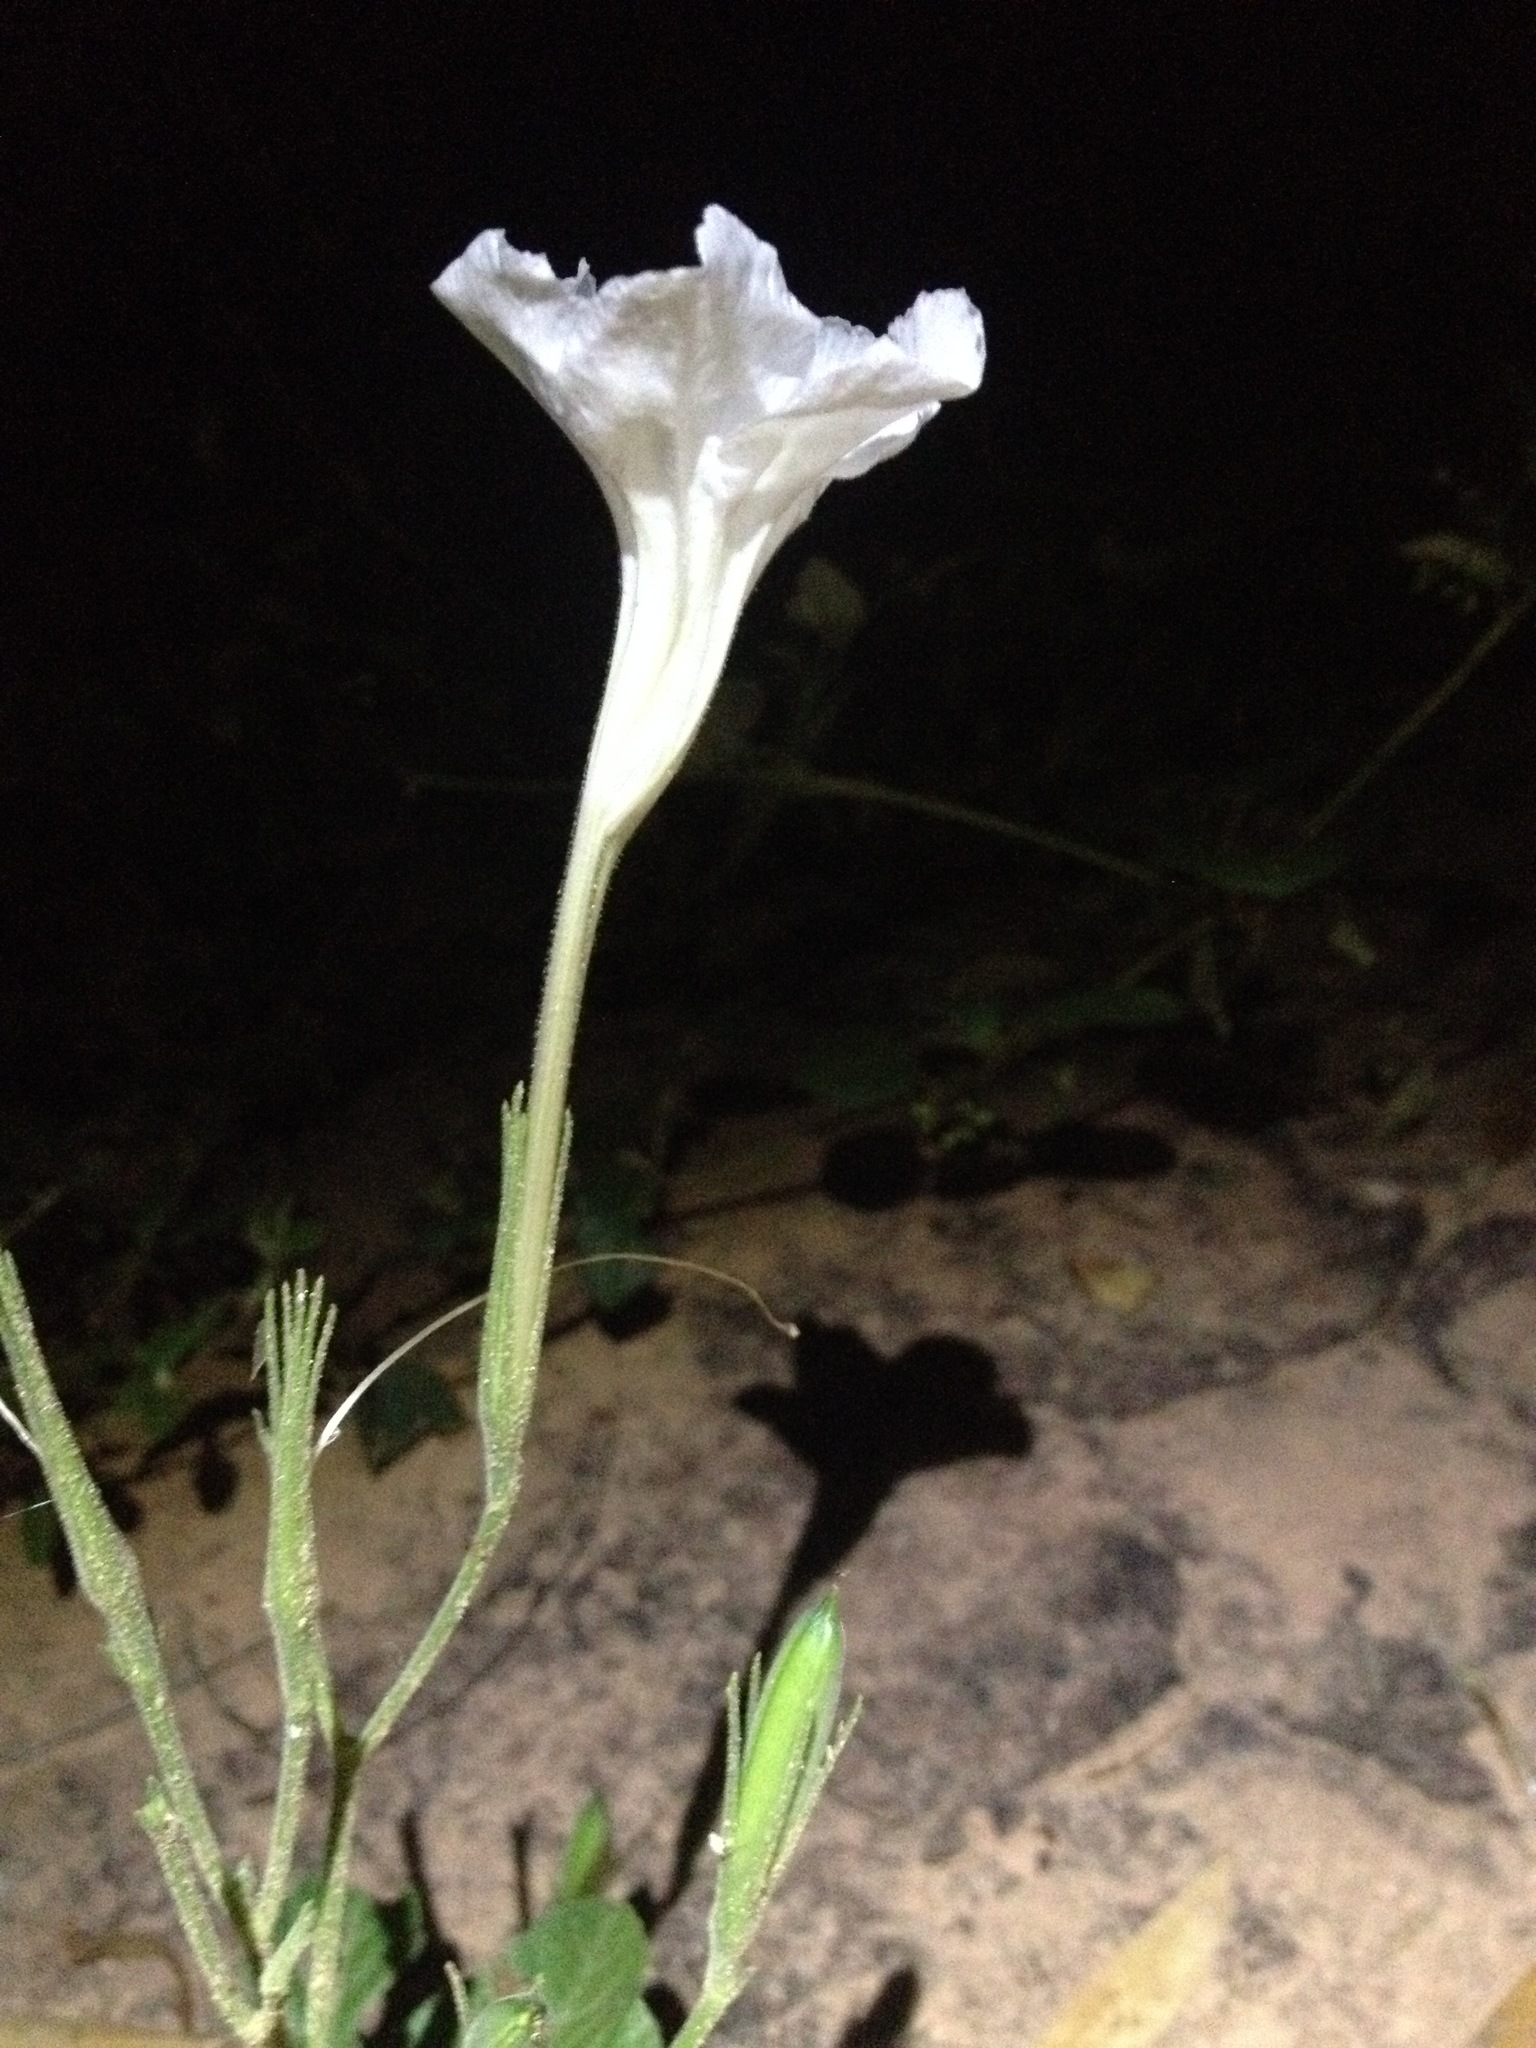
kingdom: Plantae
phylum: Tracheophyta
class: Magnoliopsida
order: Lamiales
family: Acanthaceae
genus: Ruellia
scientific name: Ruellia macrosolen
